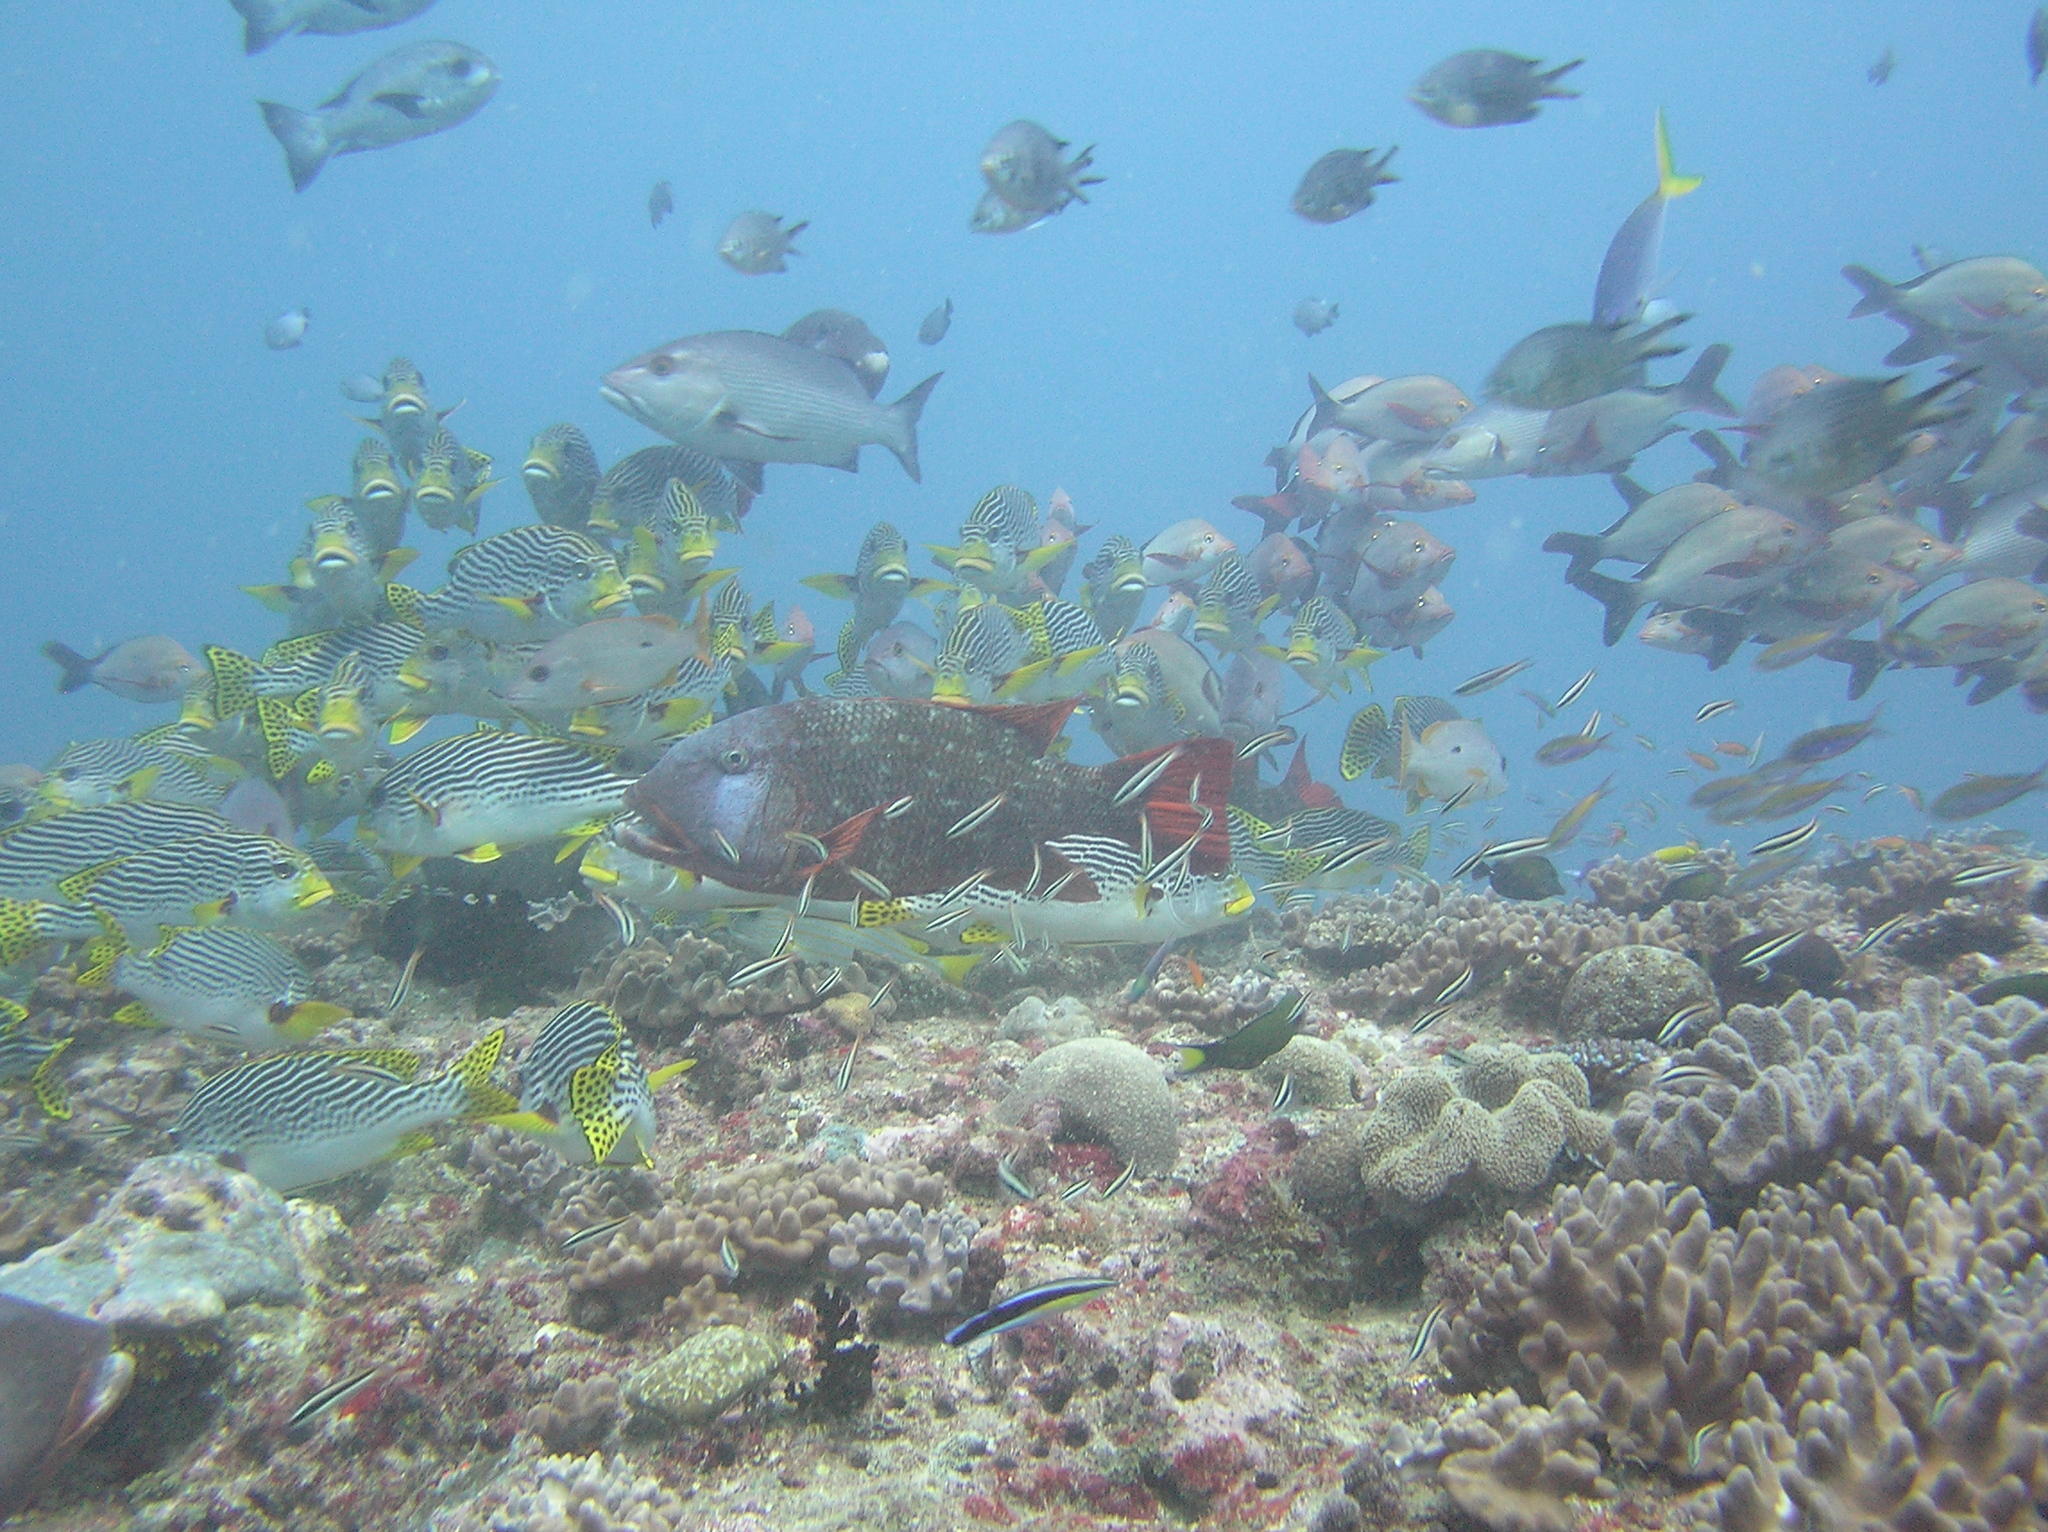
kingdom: Animalia
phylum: Chordata
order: Perciformes
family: Labridae
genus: Labroides
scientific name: Labroides dimidiatus
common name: Blue diesel wrasse
